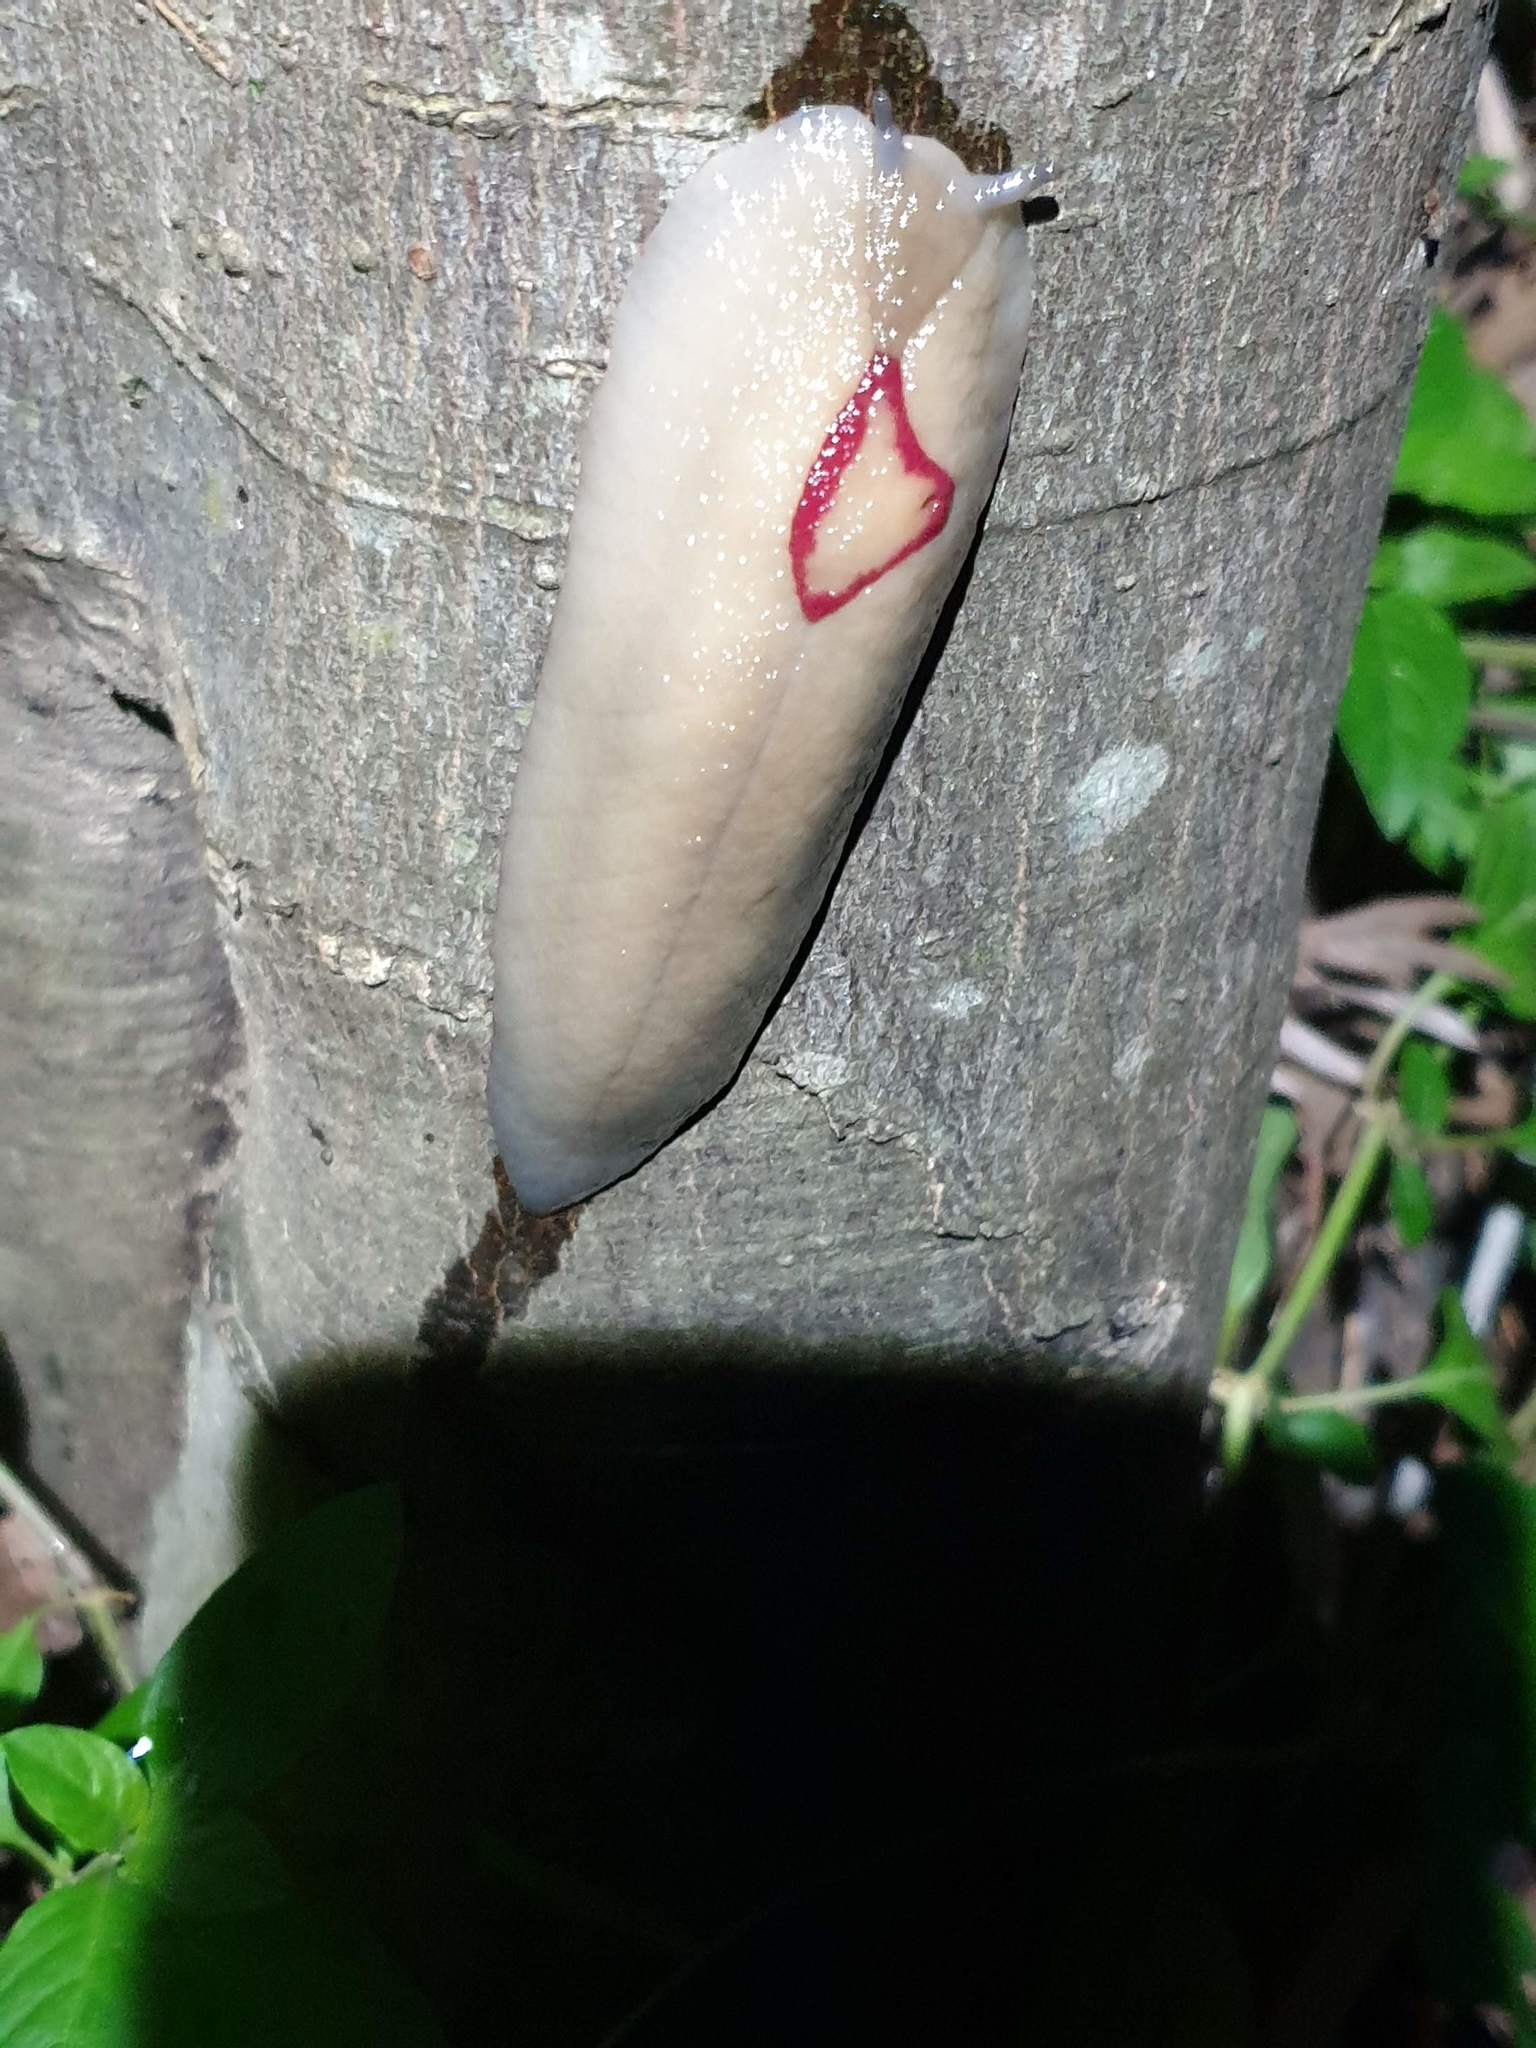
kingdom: Animalia
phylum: Mollusca
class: Gastropoda
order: Stylommatophora
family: Athoracophoridae
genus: Triboniophorus
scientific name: Triboniophorus graeffei
